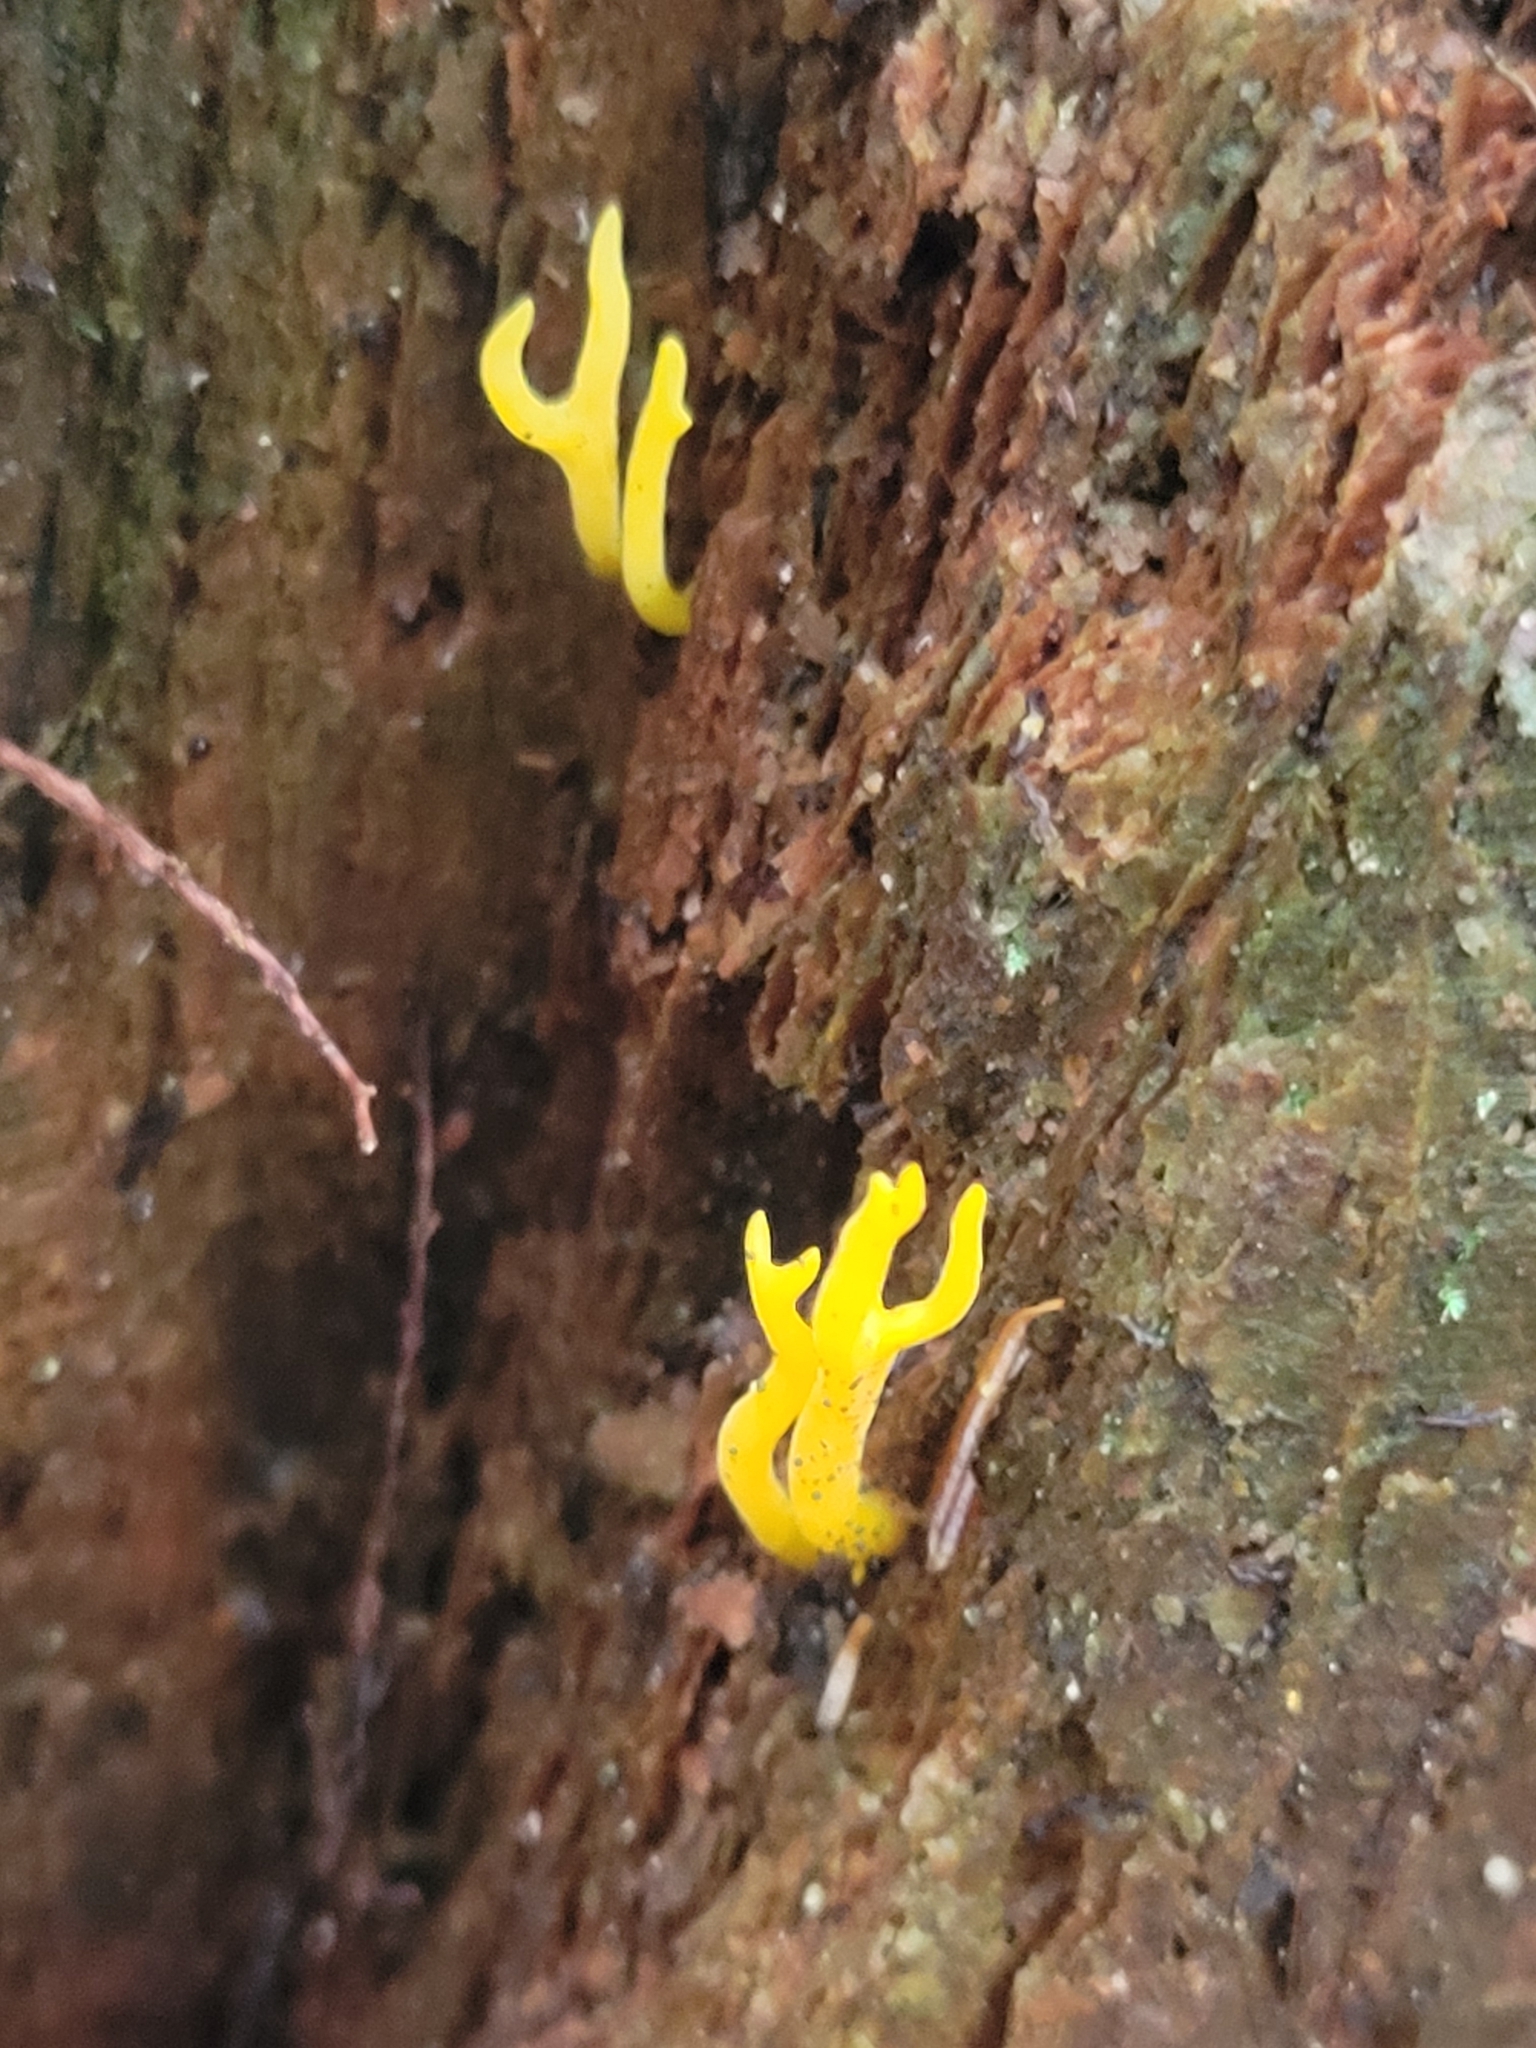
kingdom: Fungi
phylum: Basidiomycota
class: Dacrymycetes
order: Dacrymycetales
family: Dacrymycetaceae
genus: Calocera
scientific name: Calocera viscosa
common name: Yellow stagshorn
